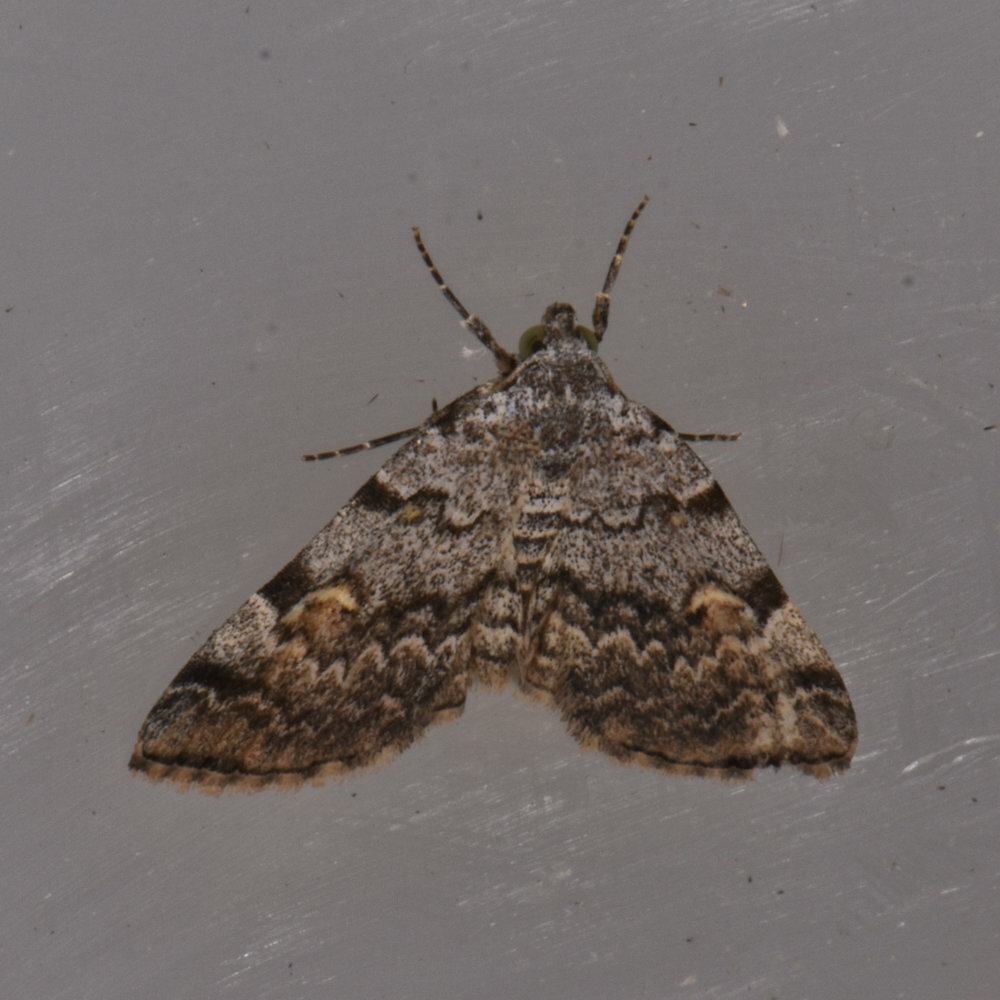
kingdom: Animalia
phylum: Arthropoda
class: Insecta
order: Lepidoptera
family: Erebidae
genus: Idia
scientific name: Idia americalis
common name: American idia moth
